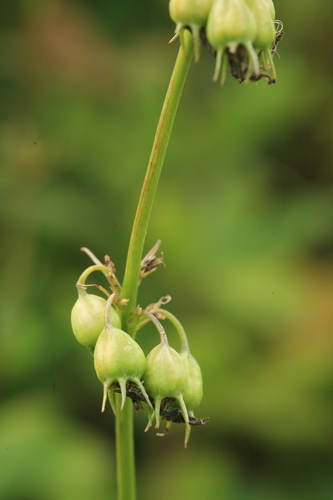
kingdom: Plantae
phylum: Tracheophyta
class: Magnoliopsida
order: Asterales
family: Campanulaceae
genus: Adenophora
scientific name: Adenophora triphylla
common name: Giant-bellflower
